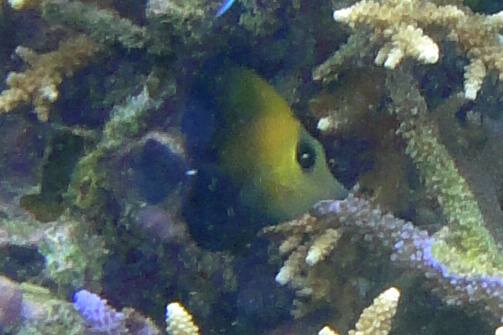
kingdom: Animalia
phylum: Chordata
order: Perciformes
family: Acanthuridae
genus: Zebrasoma
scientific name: Zebrasoma scopas
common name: Twotone tang
